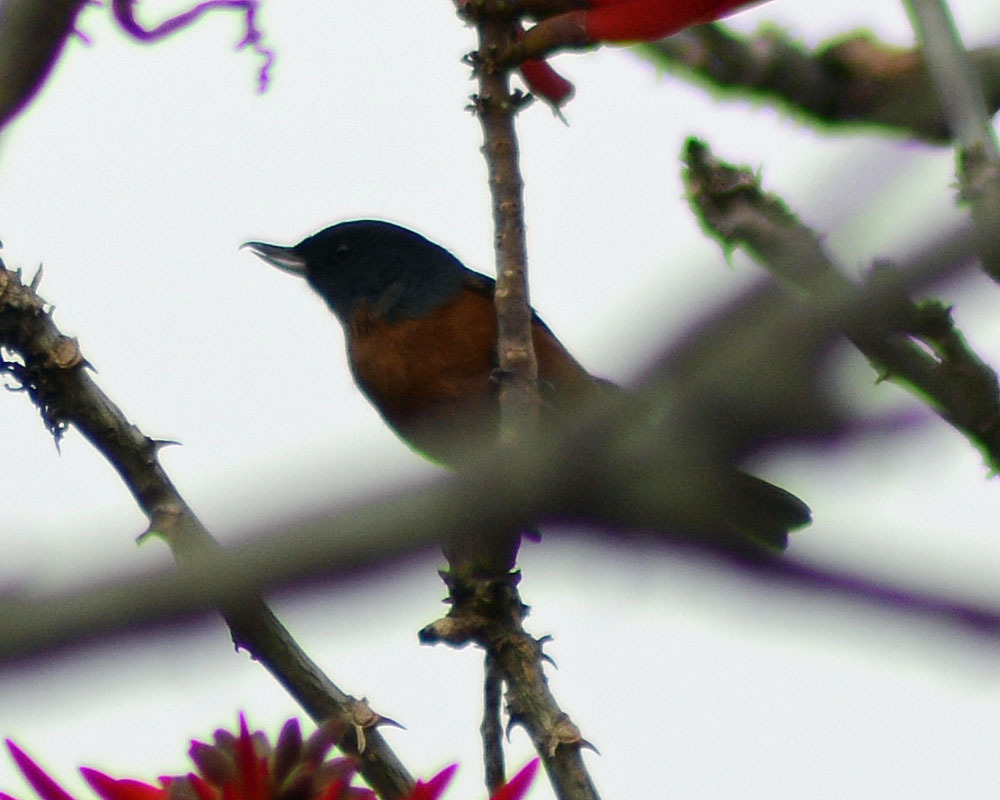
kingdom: Animalia
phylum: Chordata
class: Aves
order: Passeriformes
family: Thraupidae
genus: Diglossa
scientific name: Diglossa baritula
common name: Cinnamon-bellied flowerpiercer
